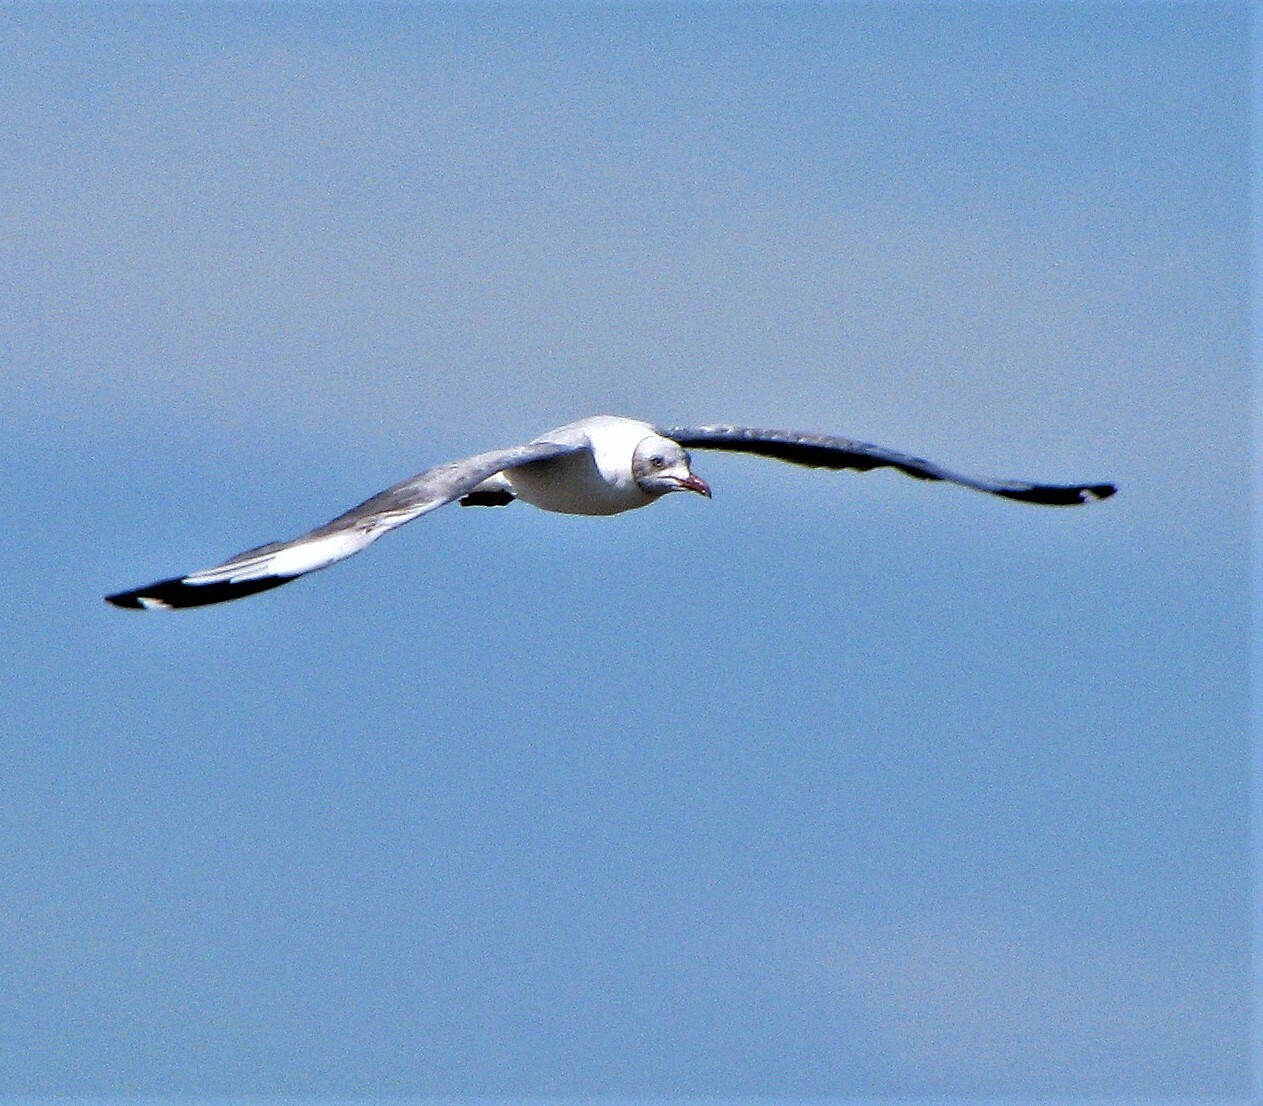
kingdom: Animalia
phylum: Chordata
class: Aves
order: Charadriiformes
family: Laridae
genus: Chroicocephalus
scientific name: Chroicocephalus cirrocephalus
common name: Grey-headed gull
